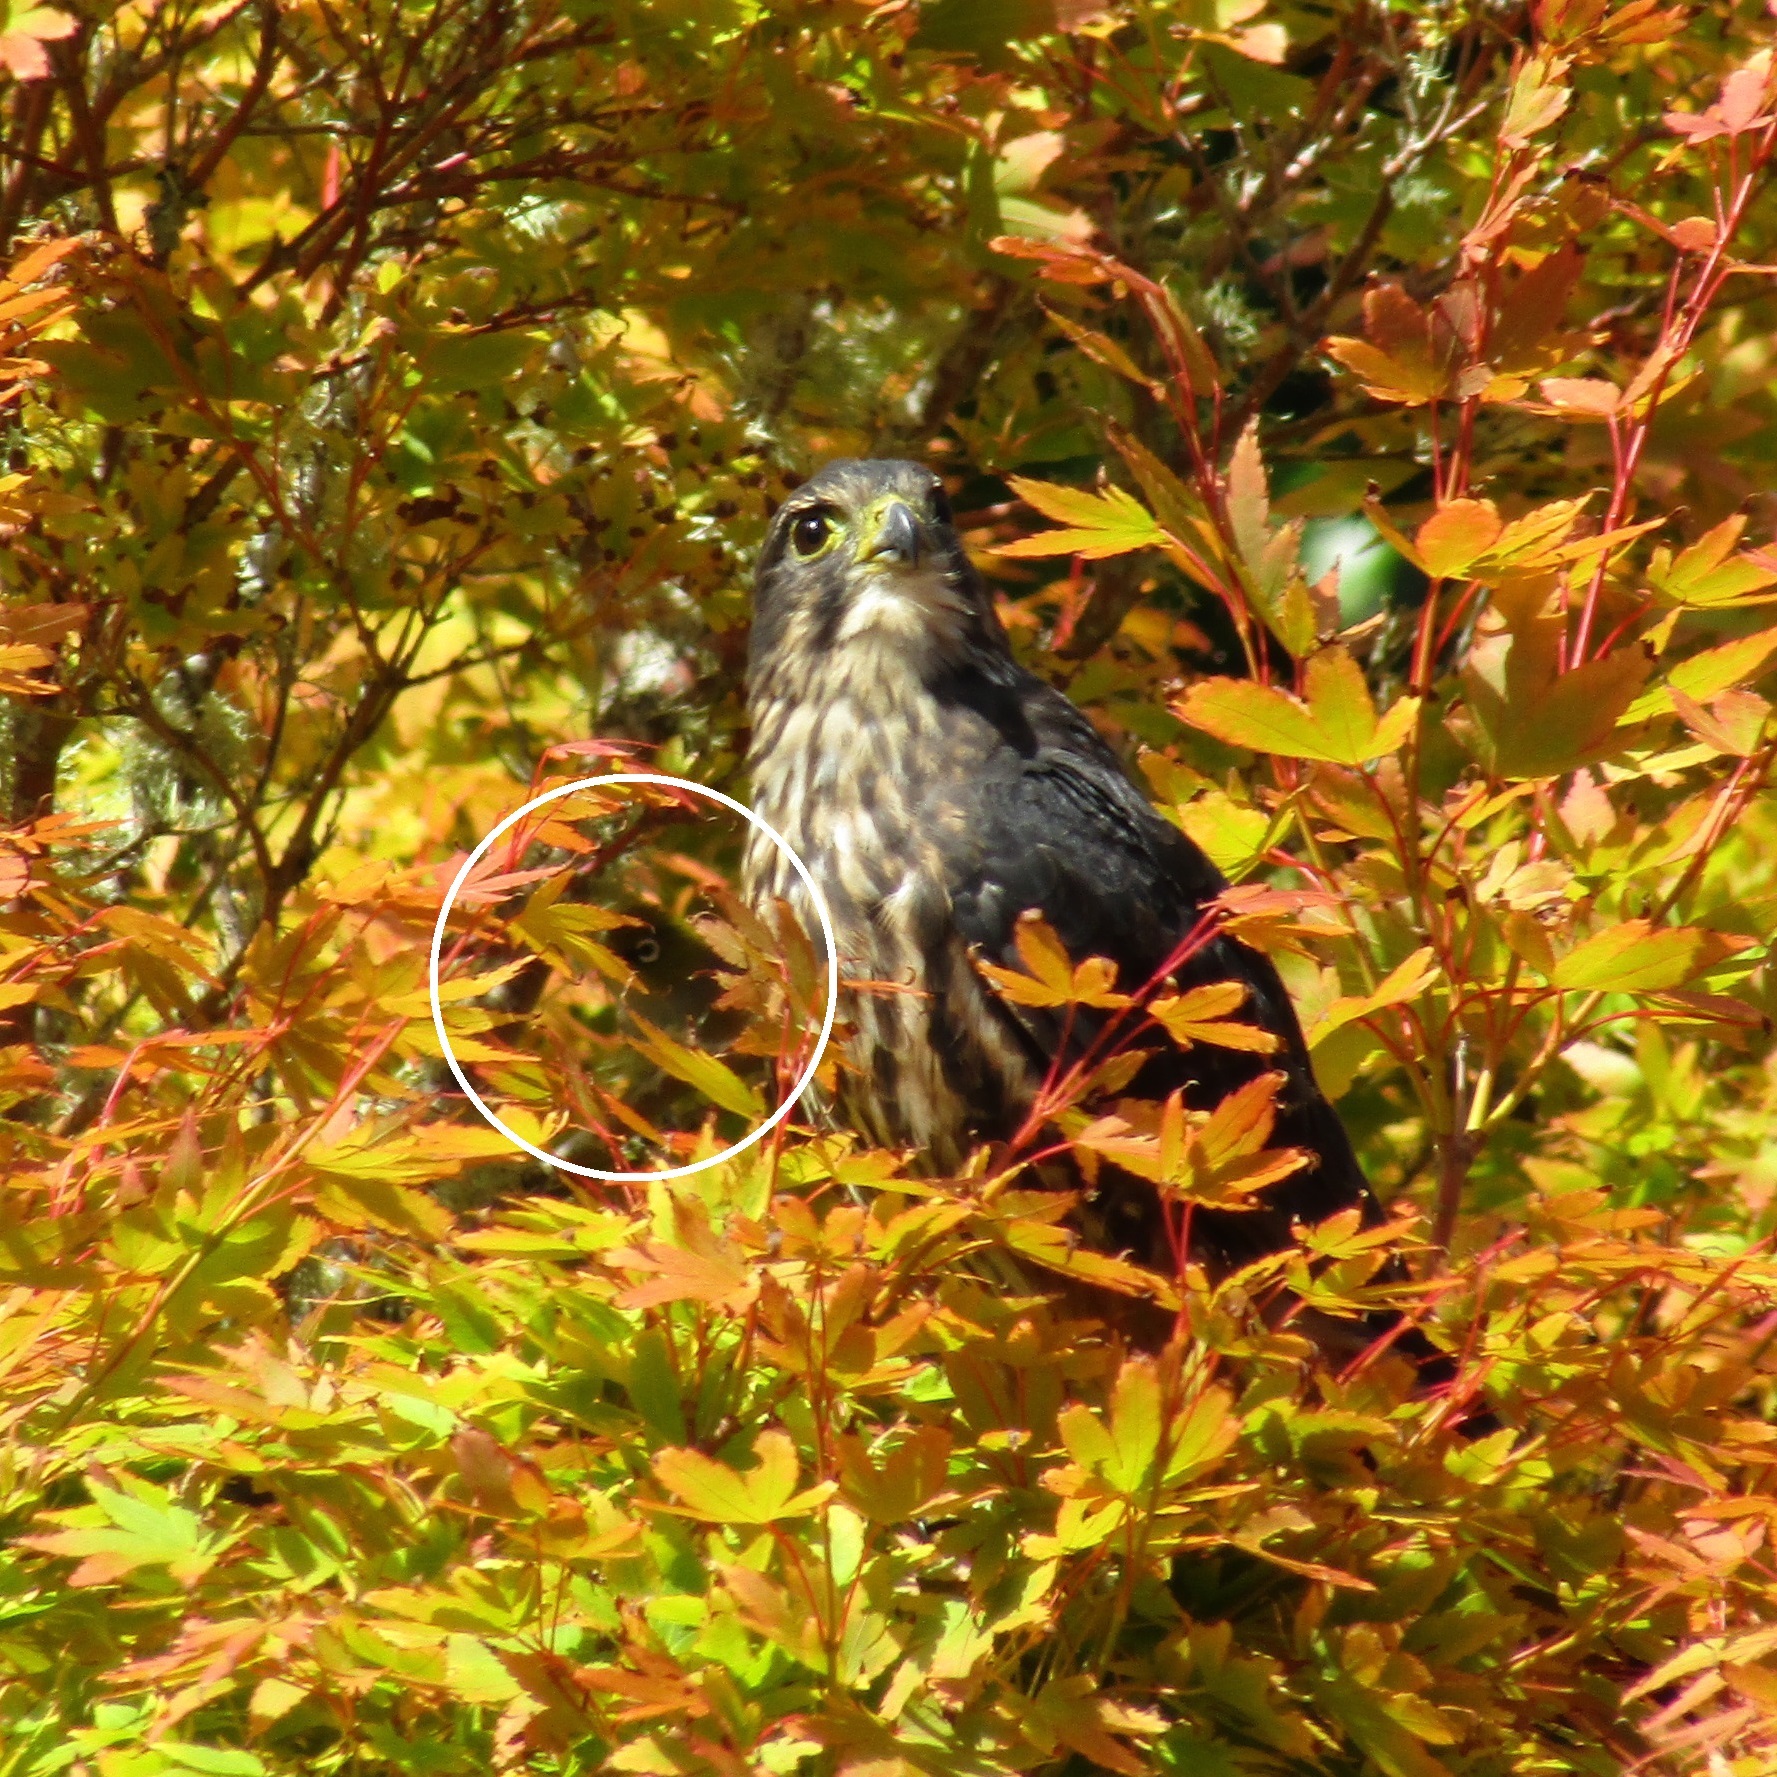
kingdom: Animalia
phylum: Chordata
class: Aves
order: Passeriformes
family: Zosteropidae
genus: Zosterops
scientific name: Zosterops lateralis
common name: Silvereye
